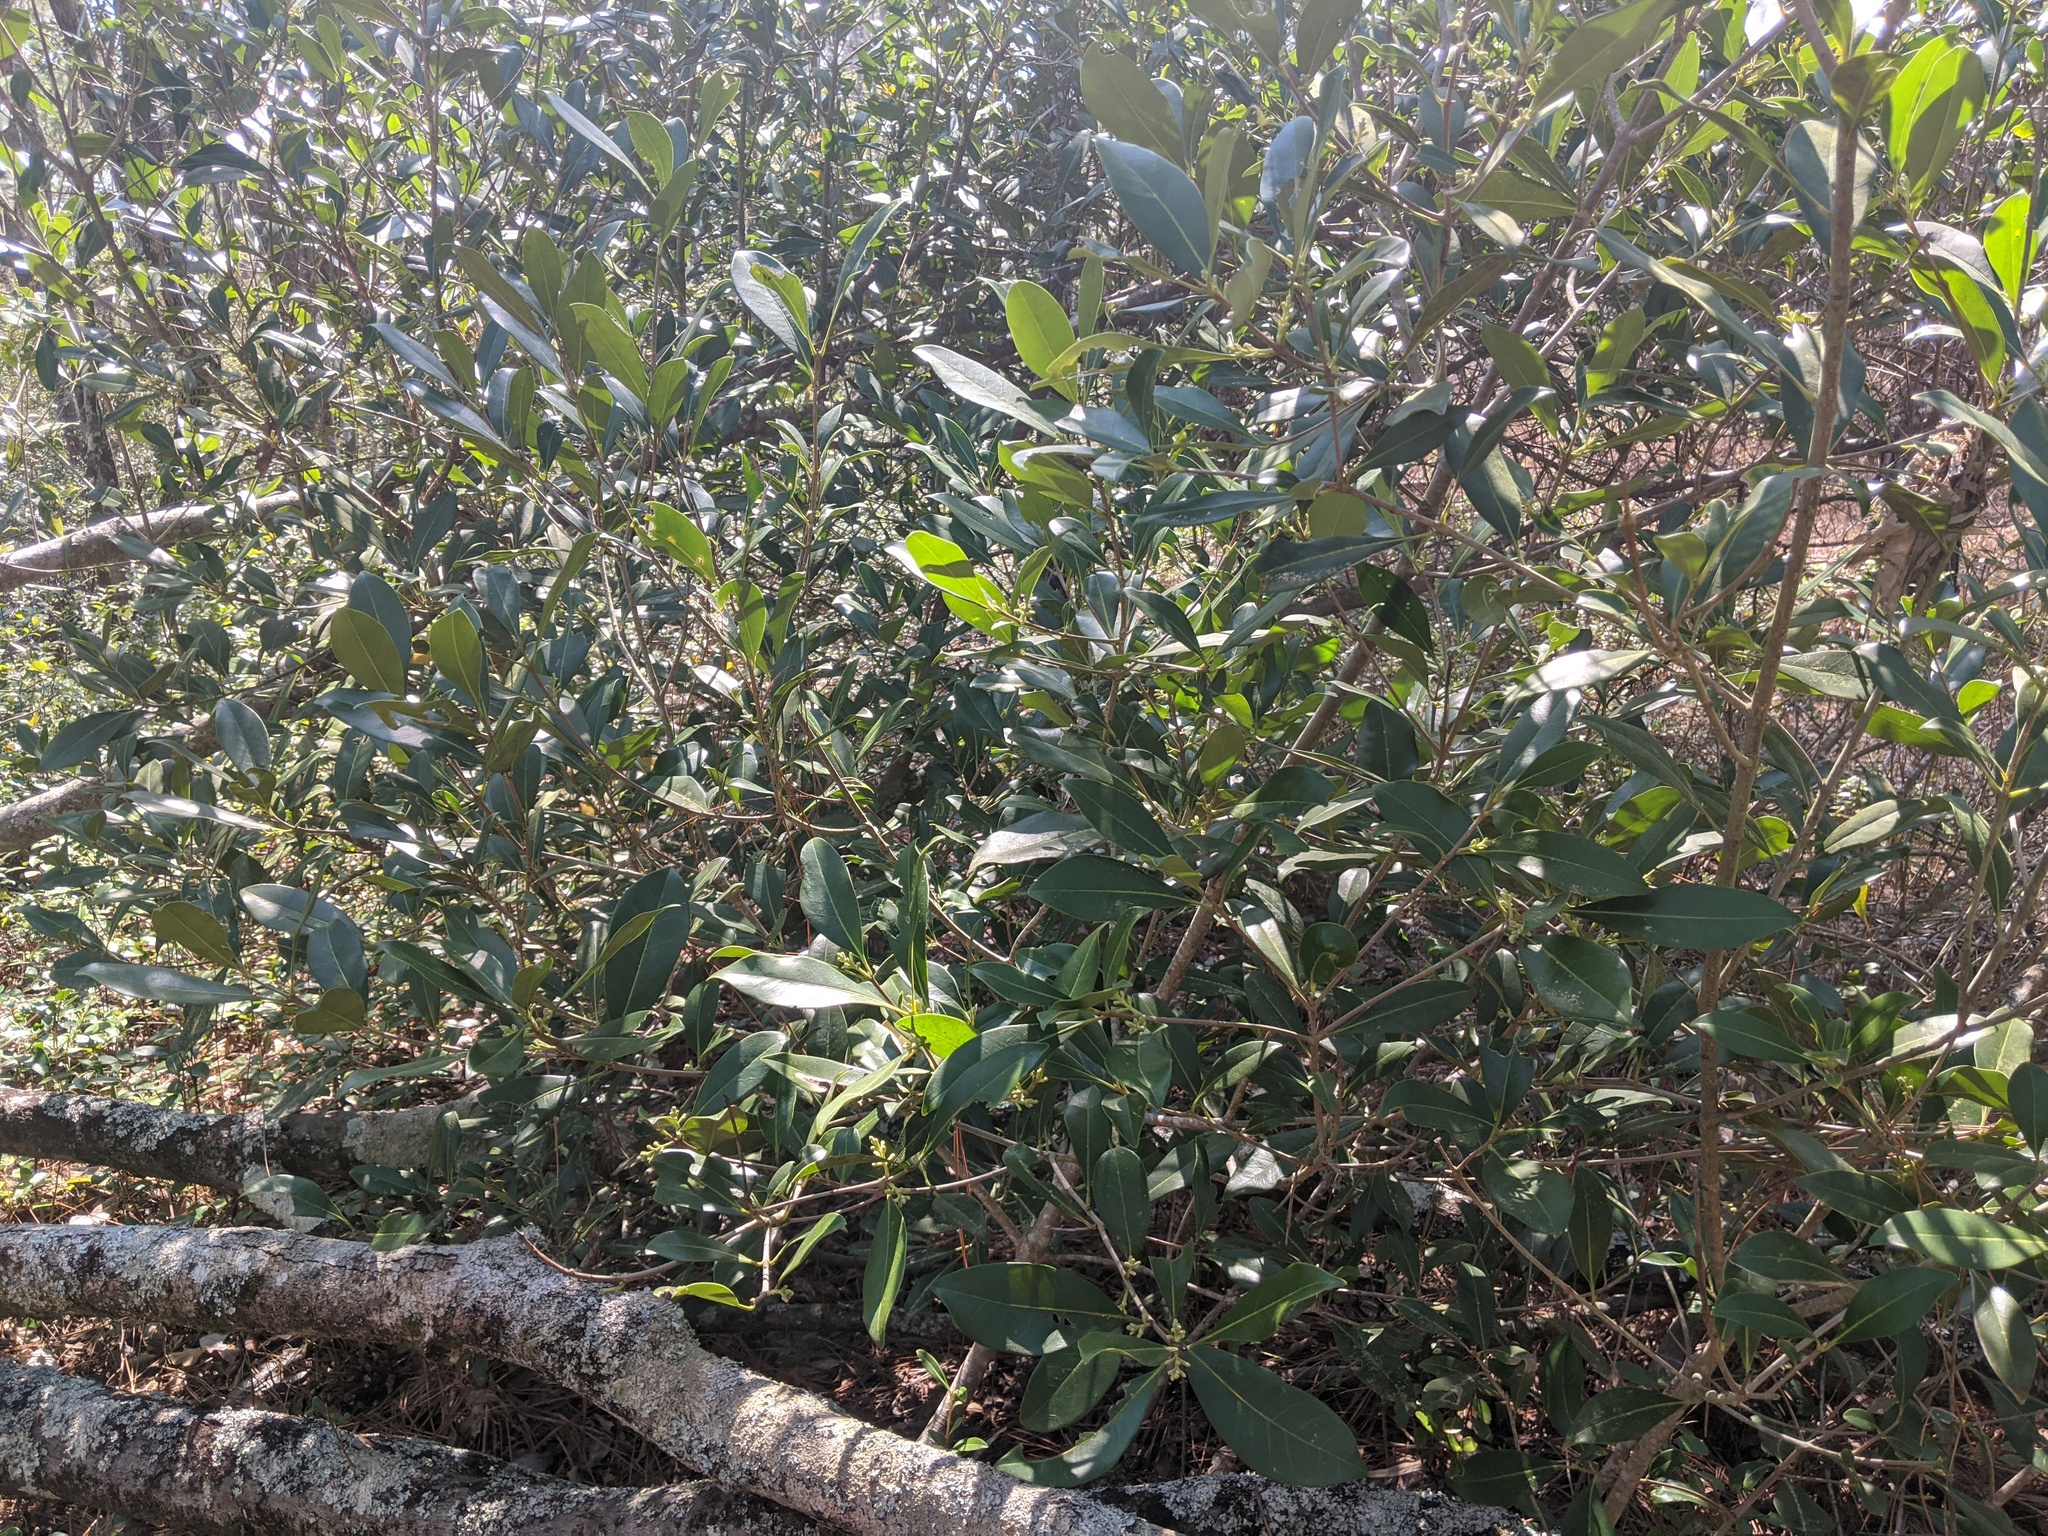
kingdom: Plantae
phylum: Tracheophyta
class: Magnoliopsida
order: Lamiales
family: Oleaceae
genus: Cartrema
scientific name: Cartrema americana
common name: Devilwood
